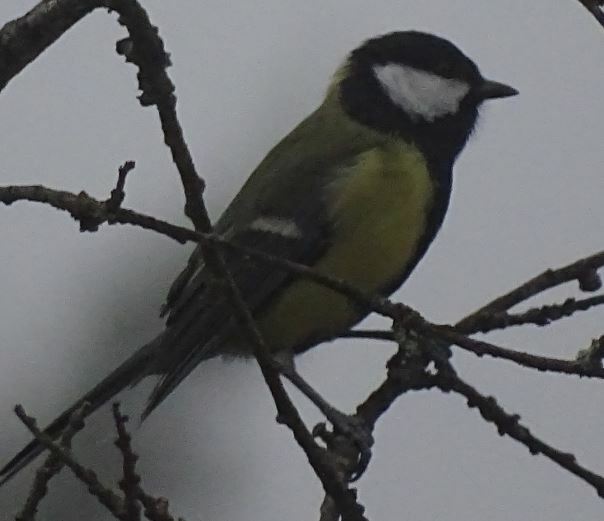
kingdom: Animalia
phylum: Chordata
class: Aves
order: Passeriformes
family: Paridae
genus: Parus
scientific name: Parus major
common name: Great tit
